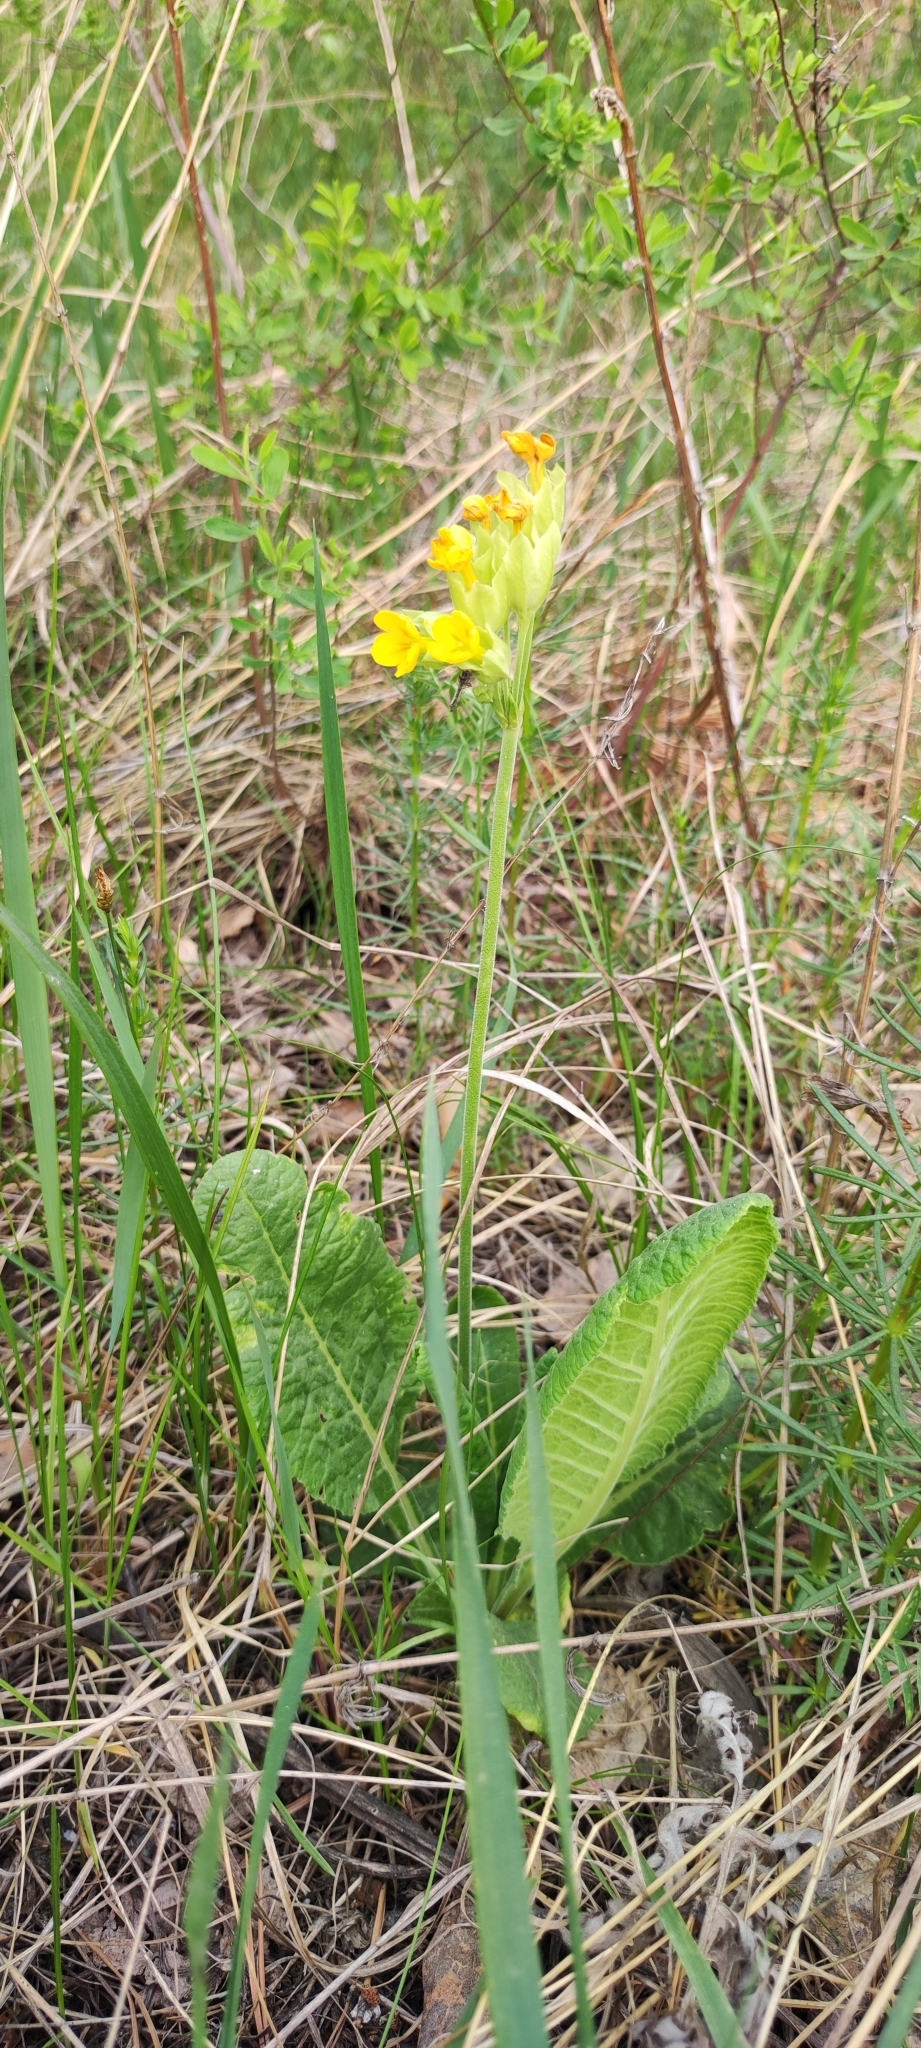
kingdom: Plantae
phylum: Tracheophyta
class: Magnoliopsida
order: Ericales
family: Primulaceae
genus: Primula
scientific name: Primula veris
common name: Cowslip
